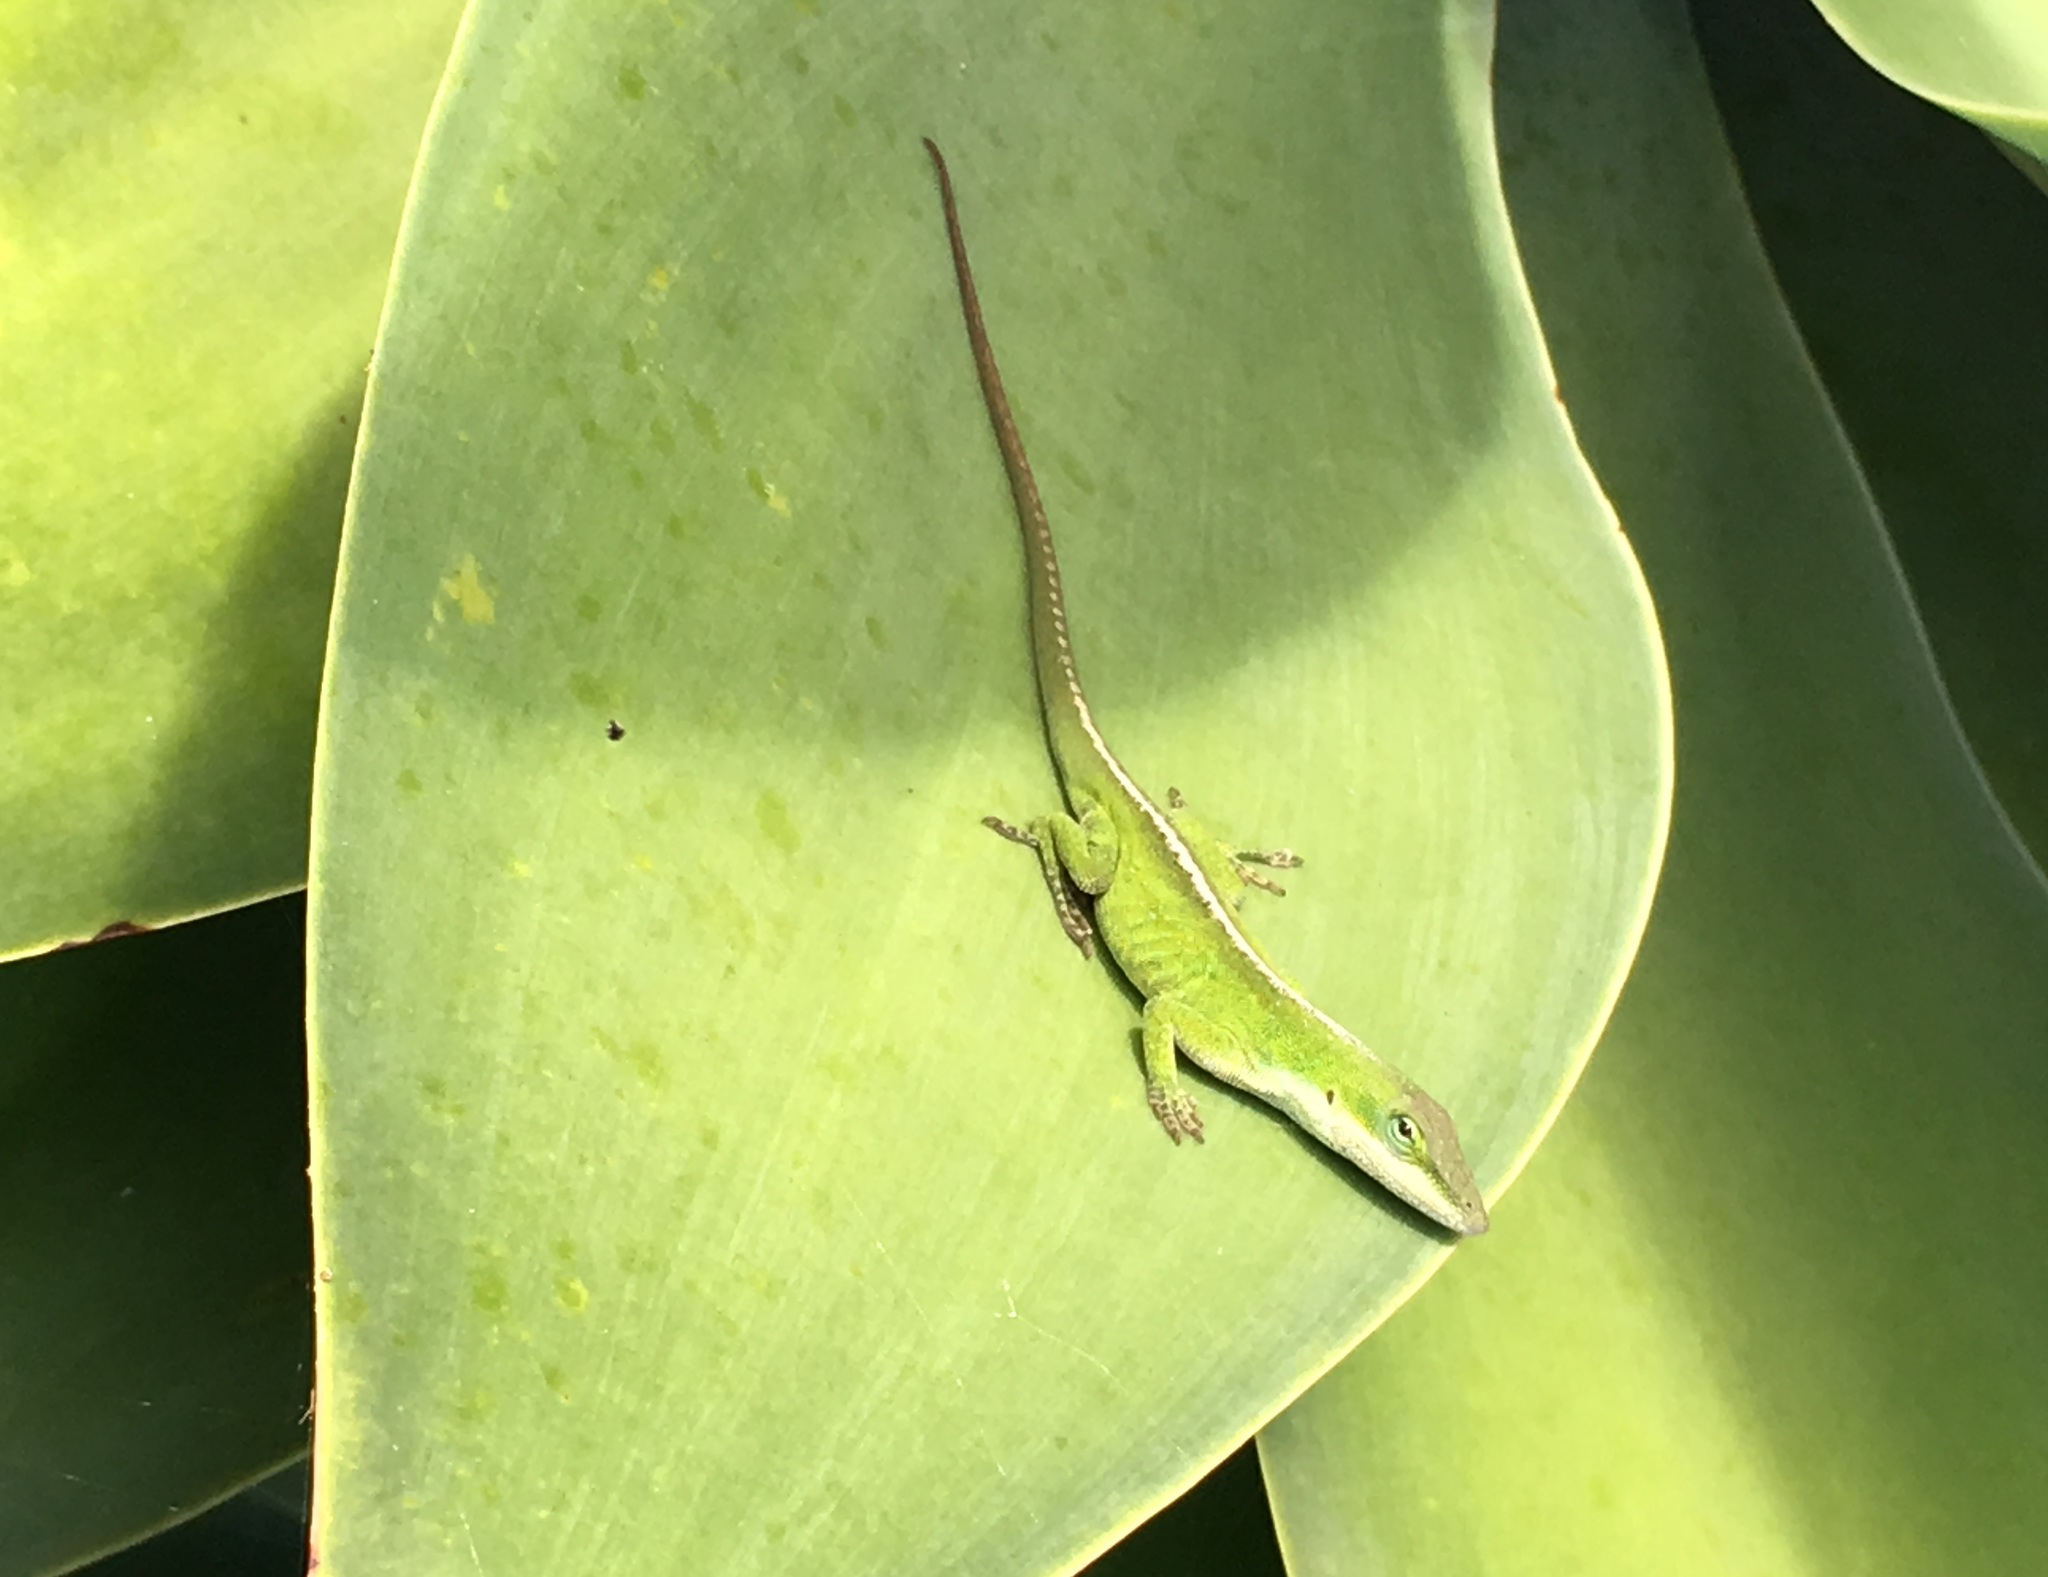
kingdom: Animalia
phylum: Chordata
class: Squamata
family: Dactyloidae
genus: Anolis
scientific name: Anolis carolinensis
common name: Green anole
